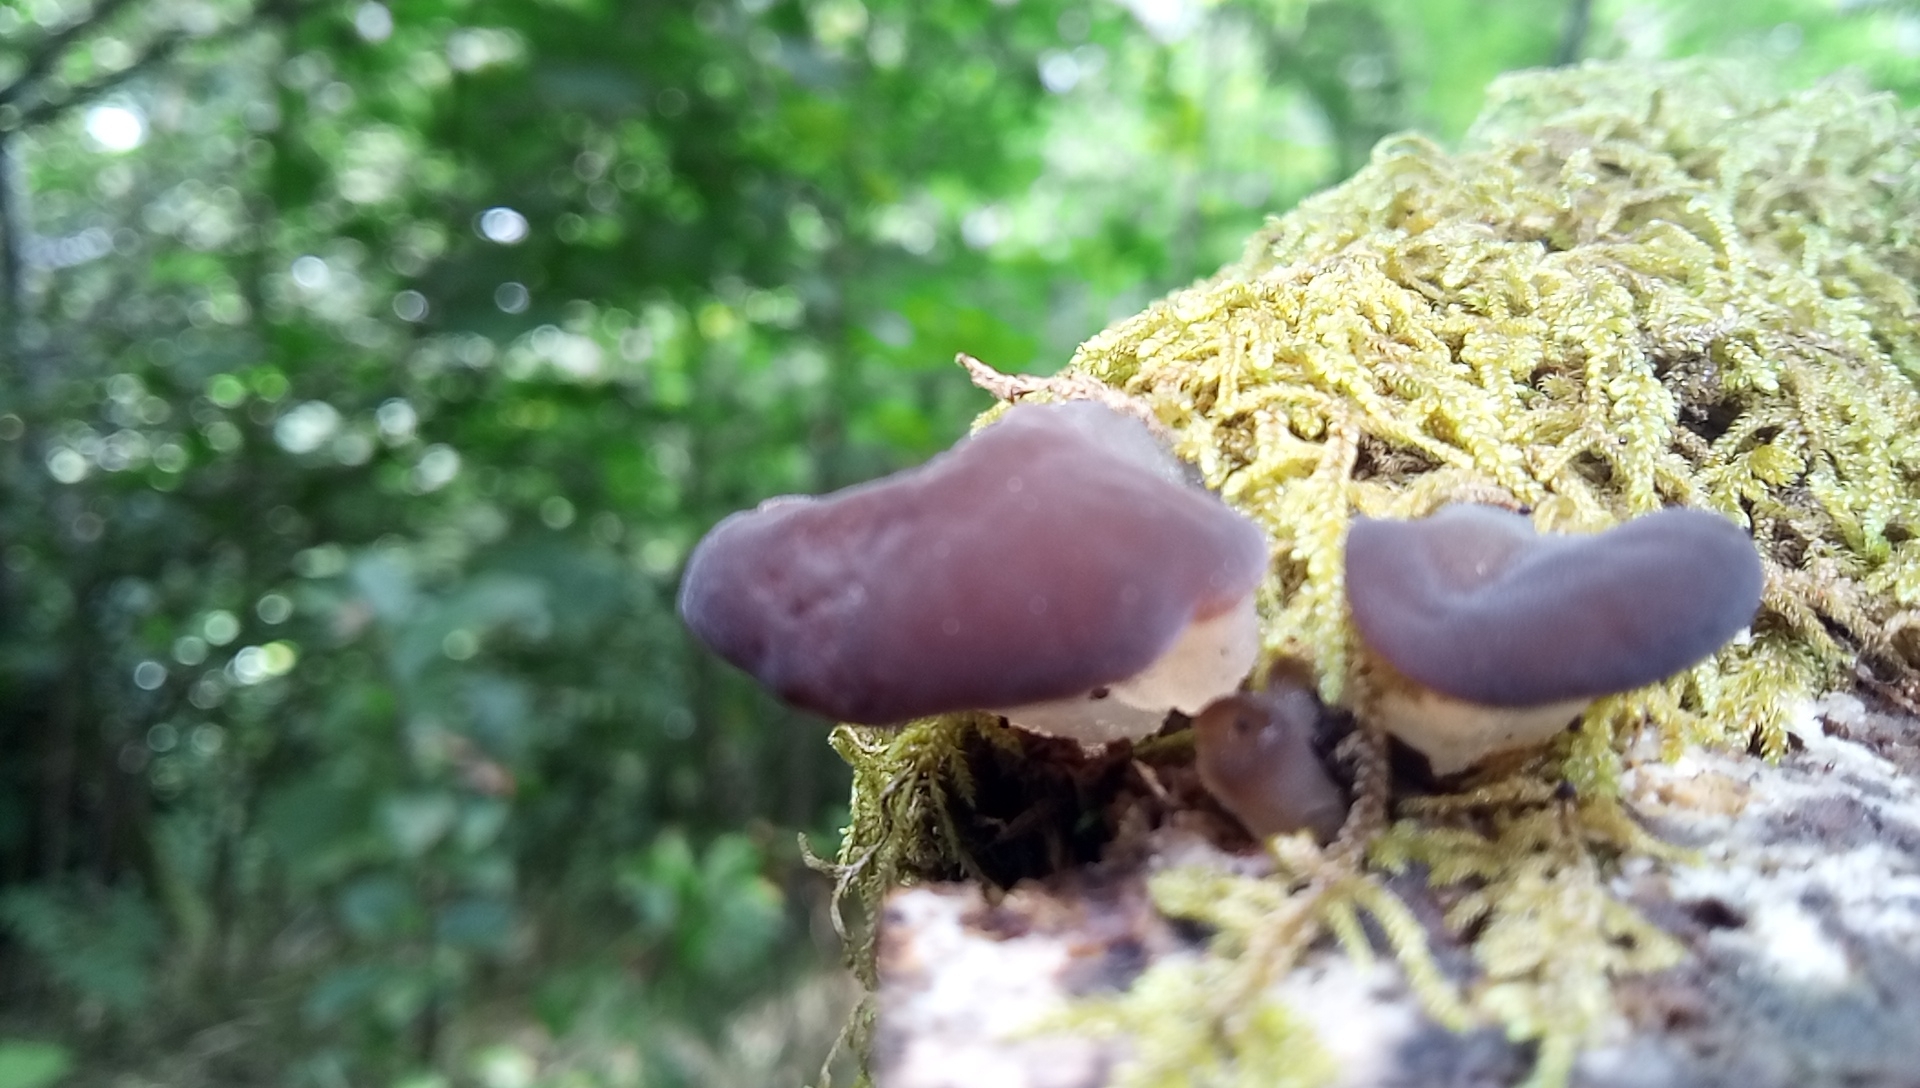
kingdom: Fungi
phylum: Basidiomycota
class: Agaricomycetes
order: Auriculariales
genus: Pseudohydnum
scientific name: Pseudohydnum gelatinosum
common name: Jelly tongue
